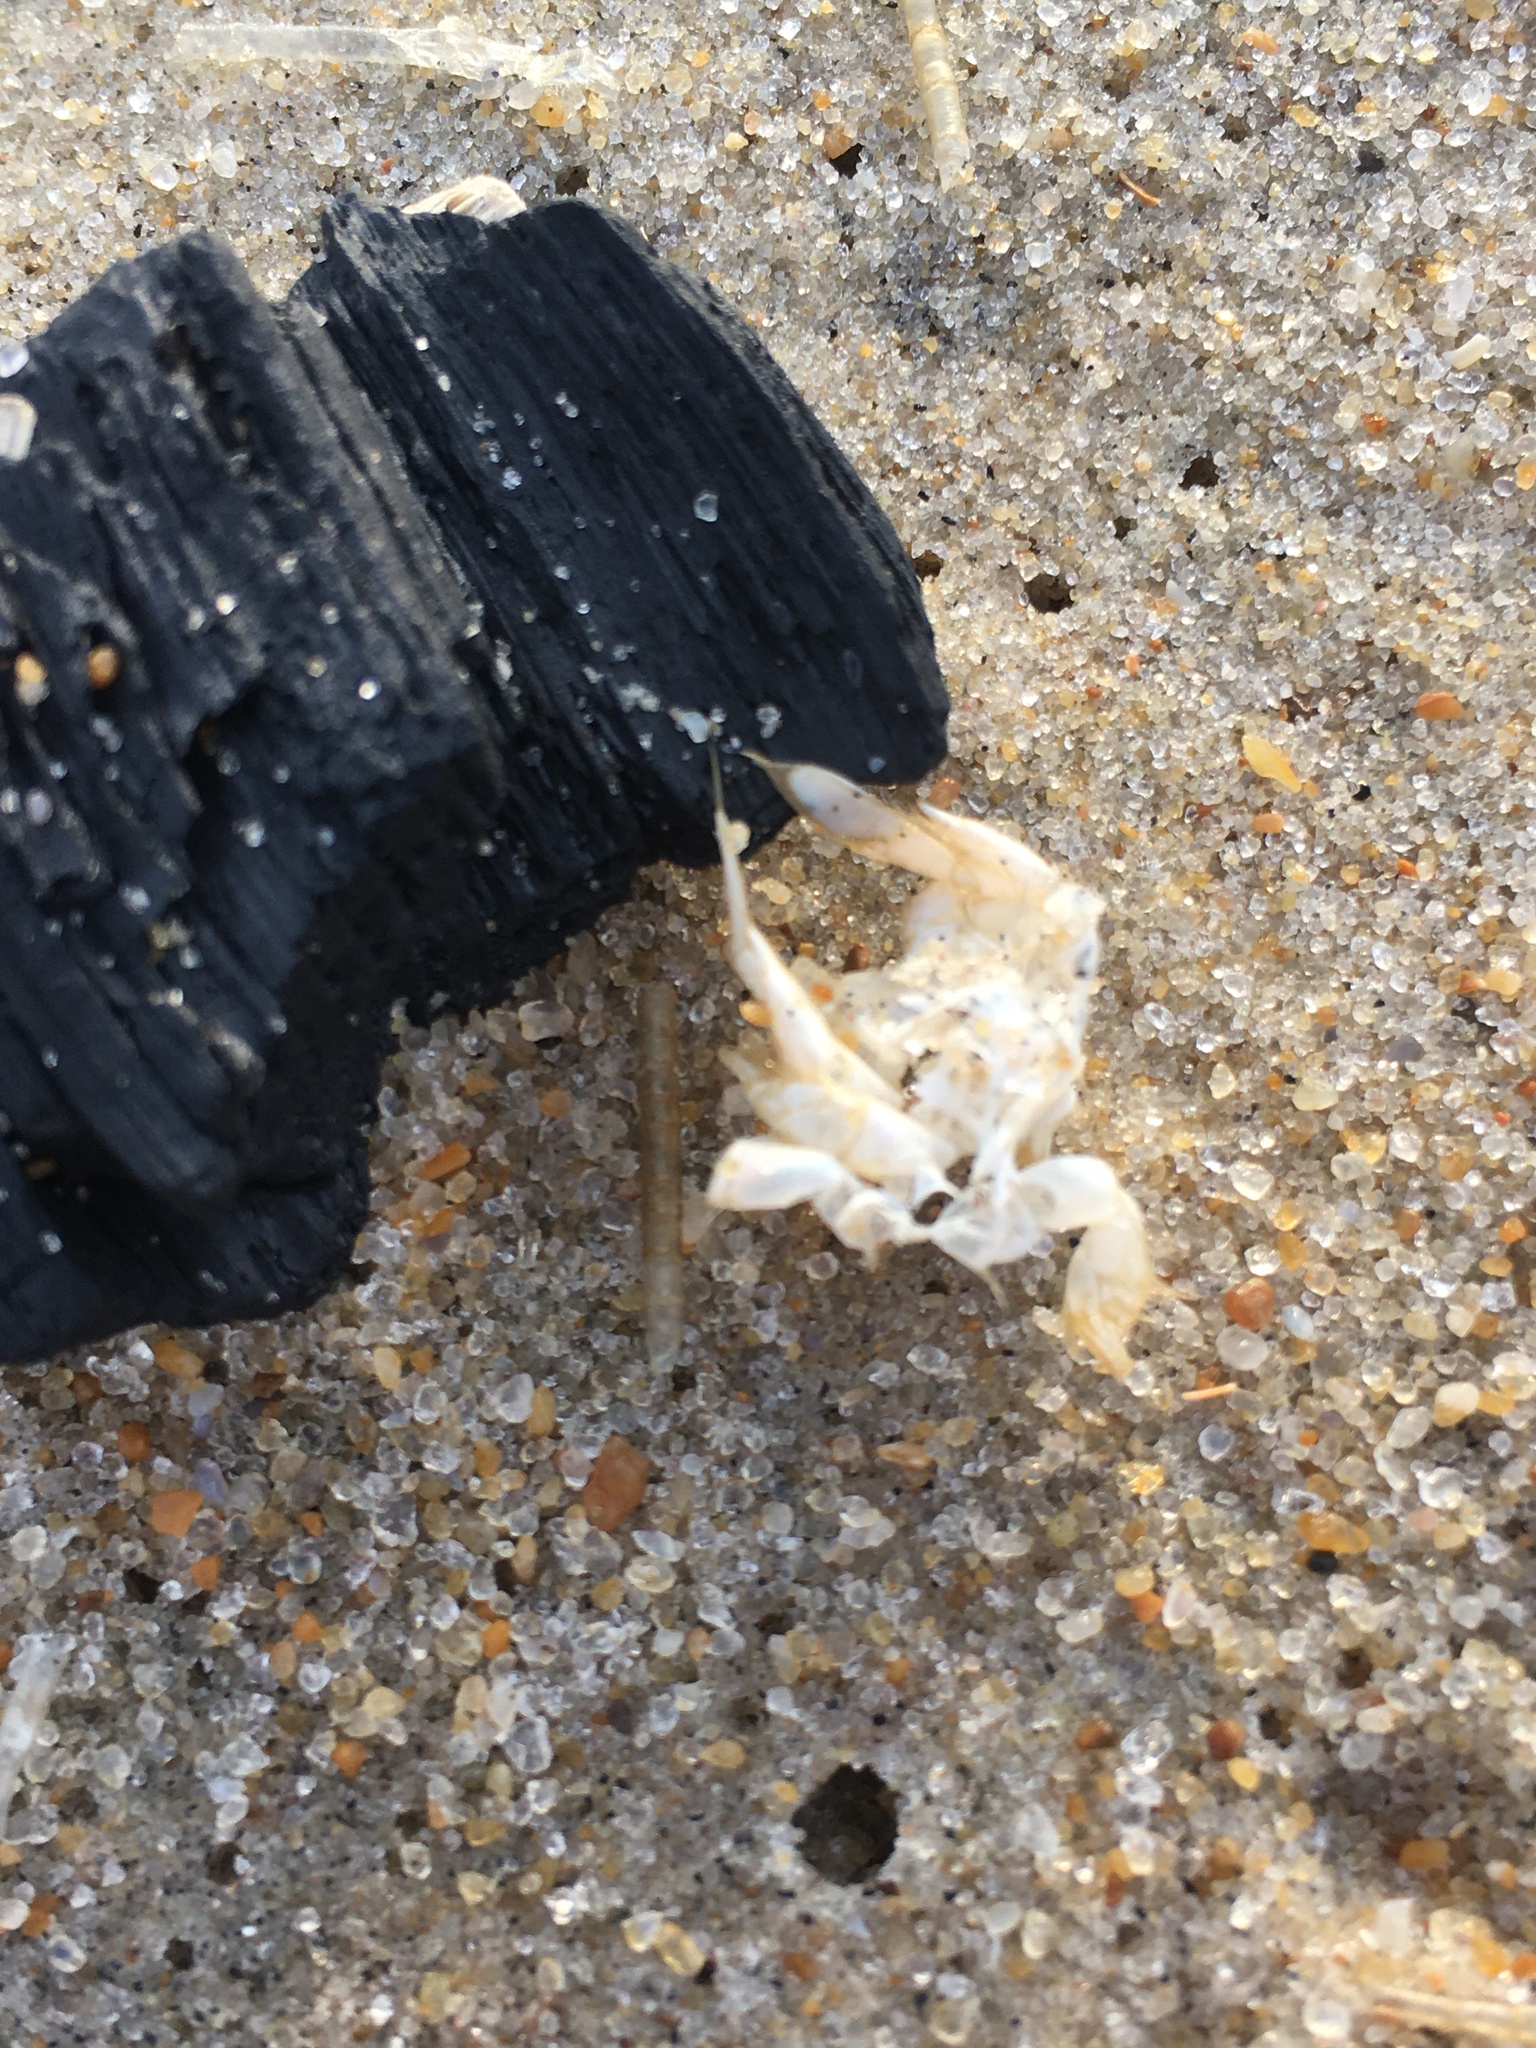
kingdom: Animalia
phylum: Arthropoda
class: Malacostraca
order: Decapoda
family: Hippidae
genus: Emerita
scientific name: Emerita talpoida
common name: Atlantic sand crab
